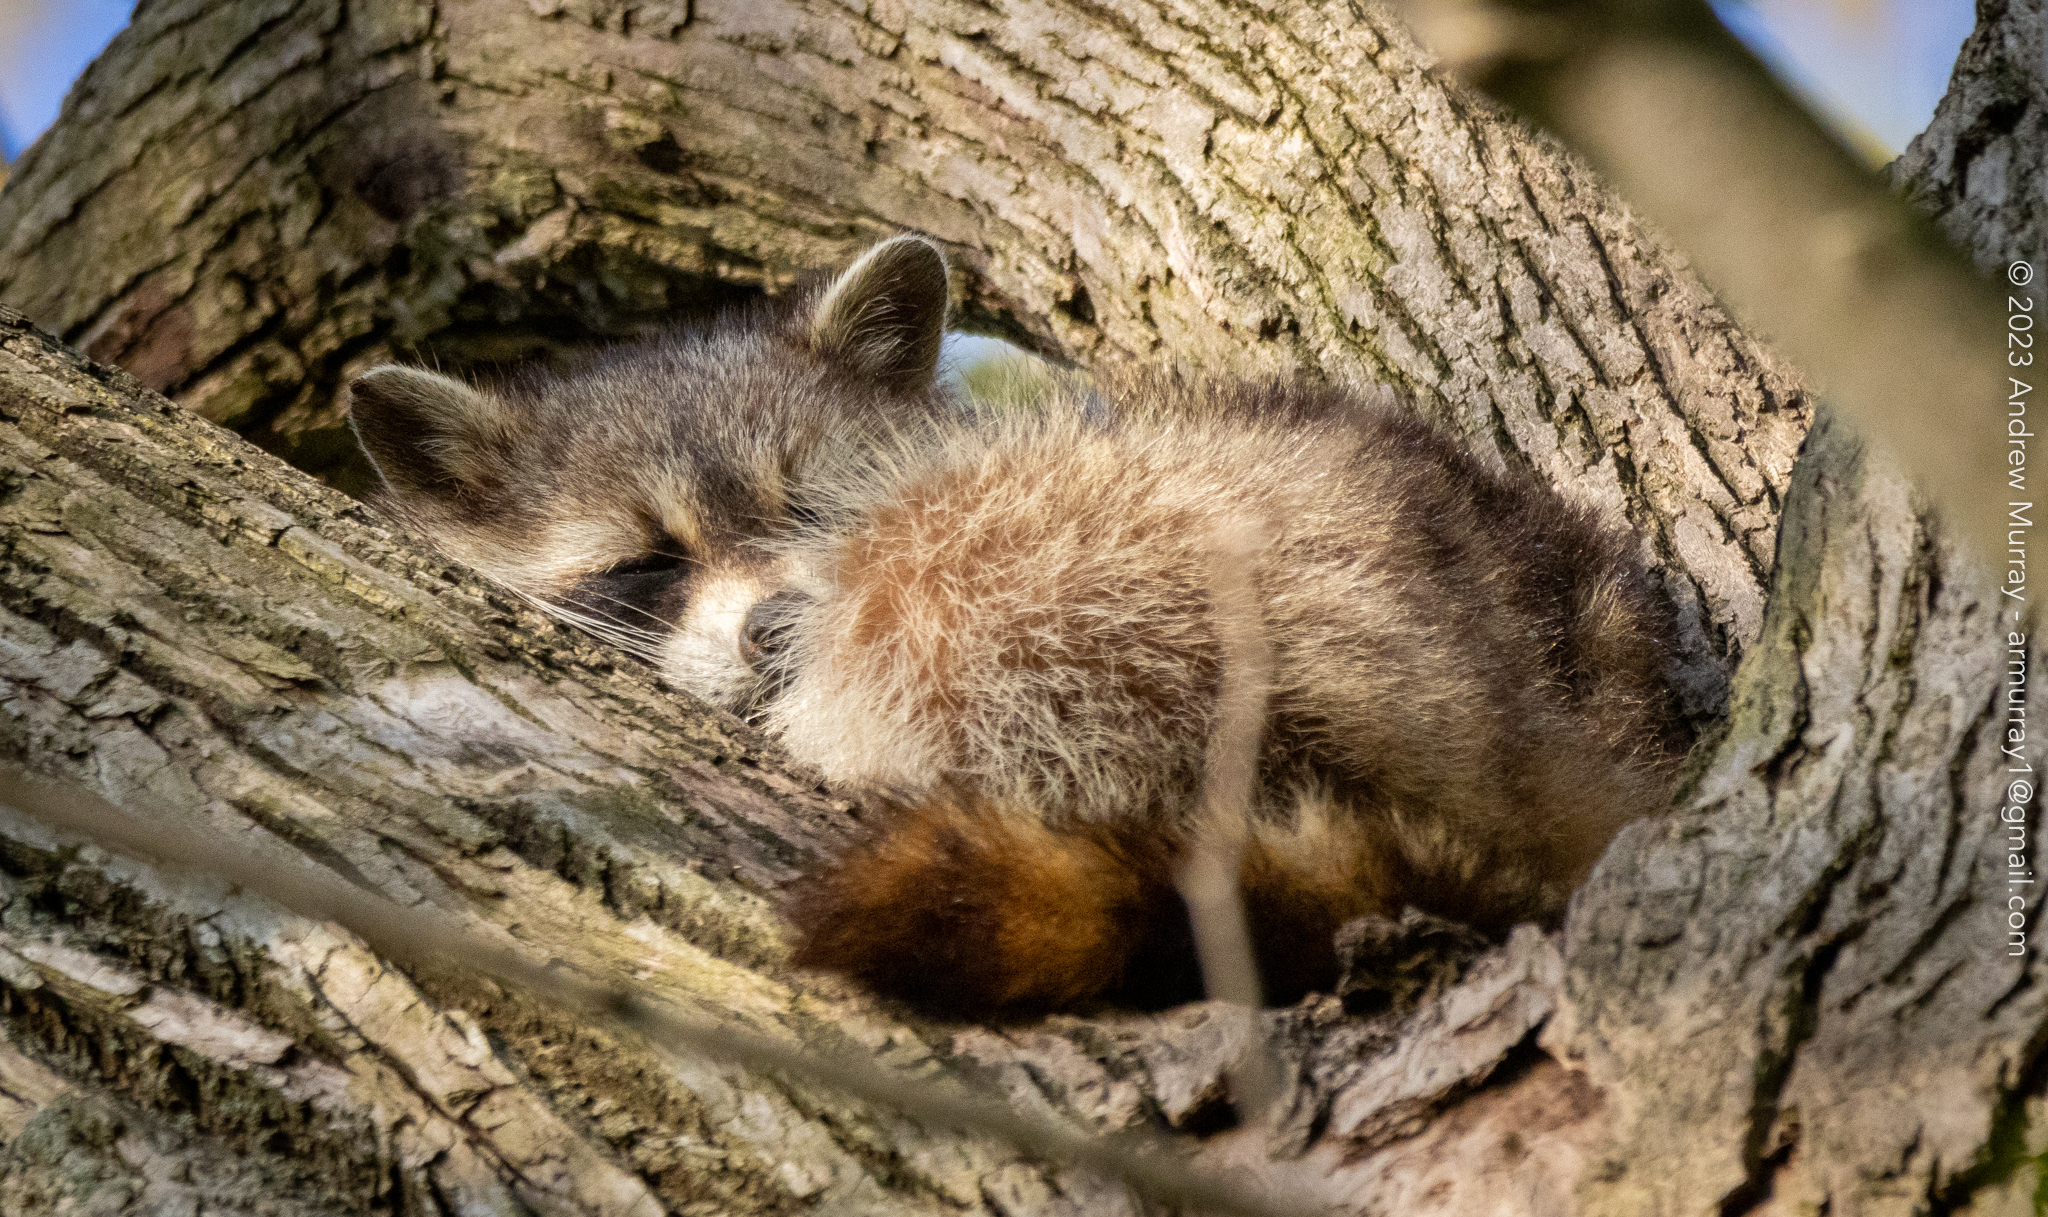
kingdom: Animalia
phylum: Chordata
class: Mammalia
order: Carnivora
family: Procyonidae
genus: Procyon
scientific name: Procyon lotor
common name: Raccoon
